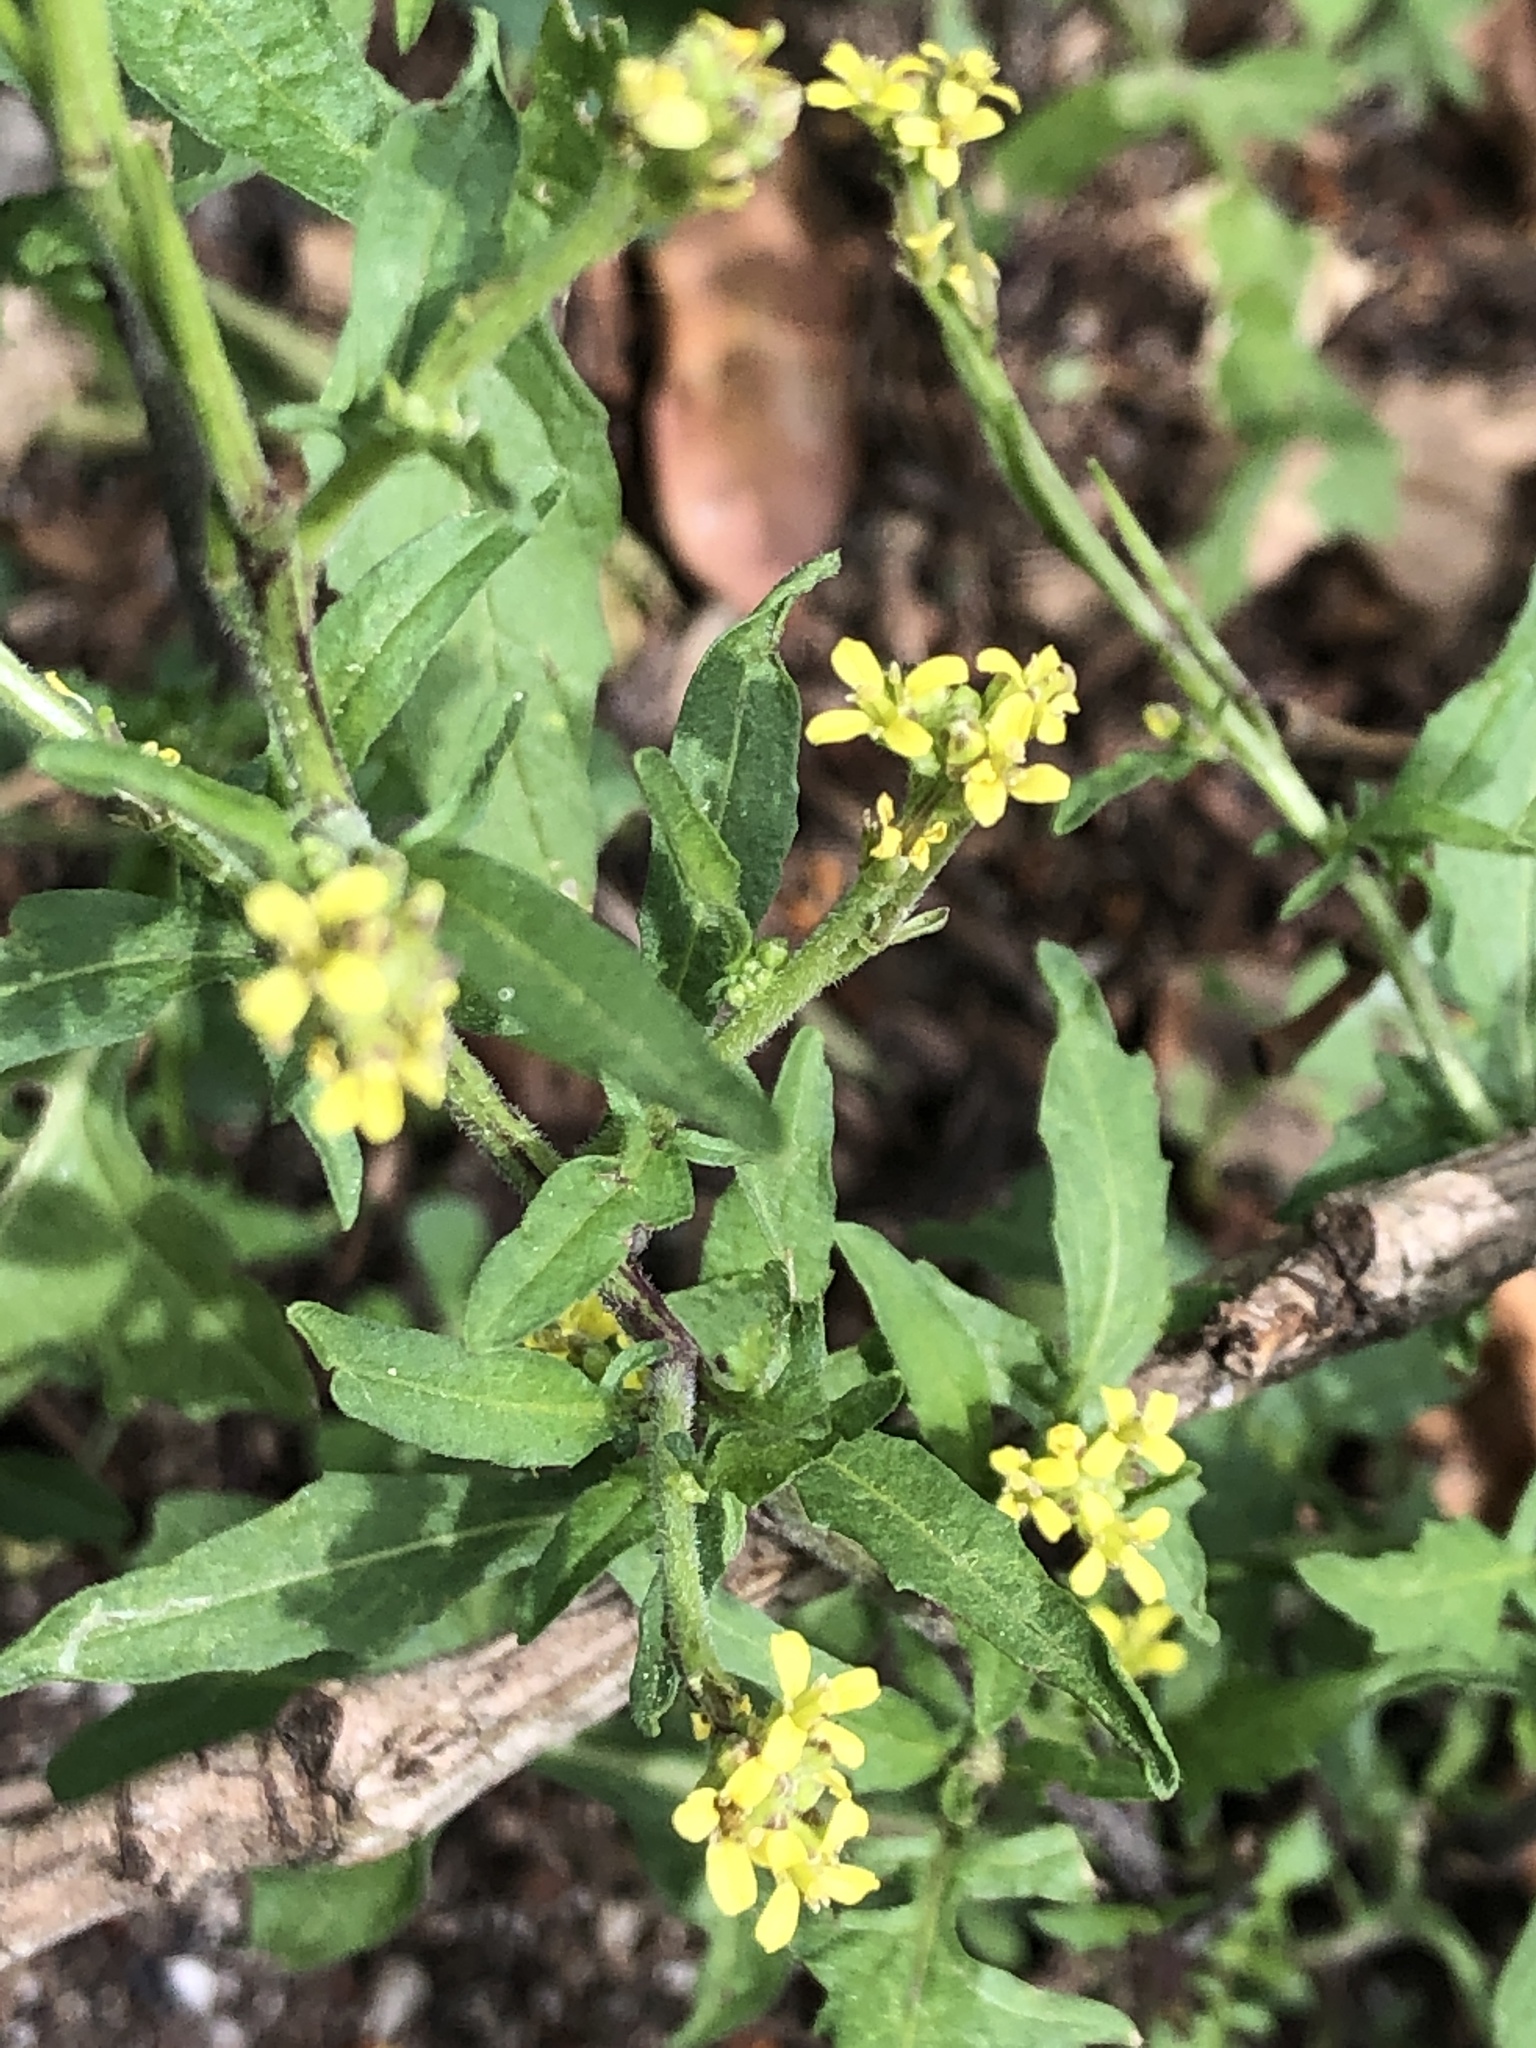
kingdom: Plantae
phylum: Tracheophyta
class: Magnoliopsida
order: Brassicales
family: Brassicaceae
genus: Sisymbrium
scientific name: Sisymbrium officinale
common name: Hedge mustard
